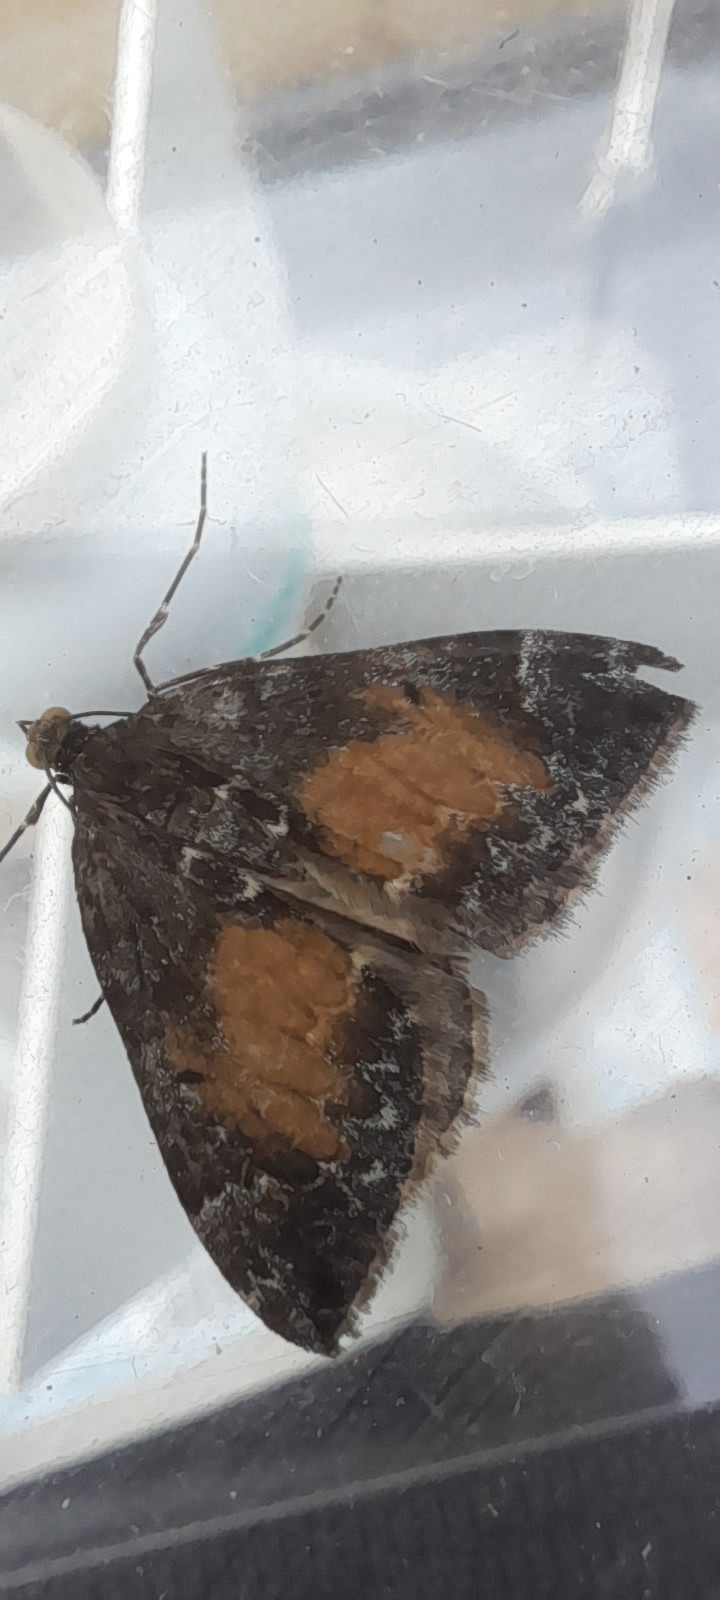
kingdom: Animalia
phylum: Arthropoda
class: Insecta
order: Lepidoptera
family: Geometridae
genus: Dysstroma
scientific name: Dysstroma truncata
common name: Common marbled carpet
